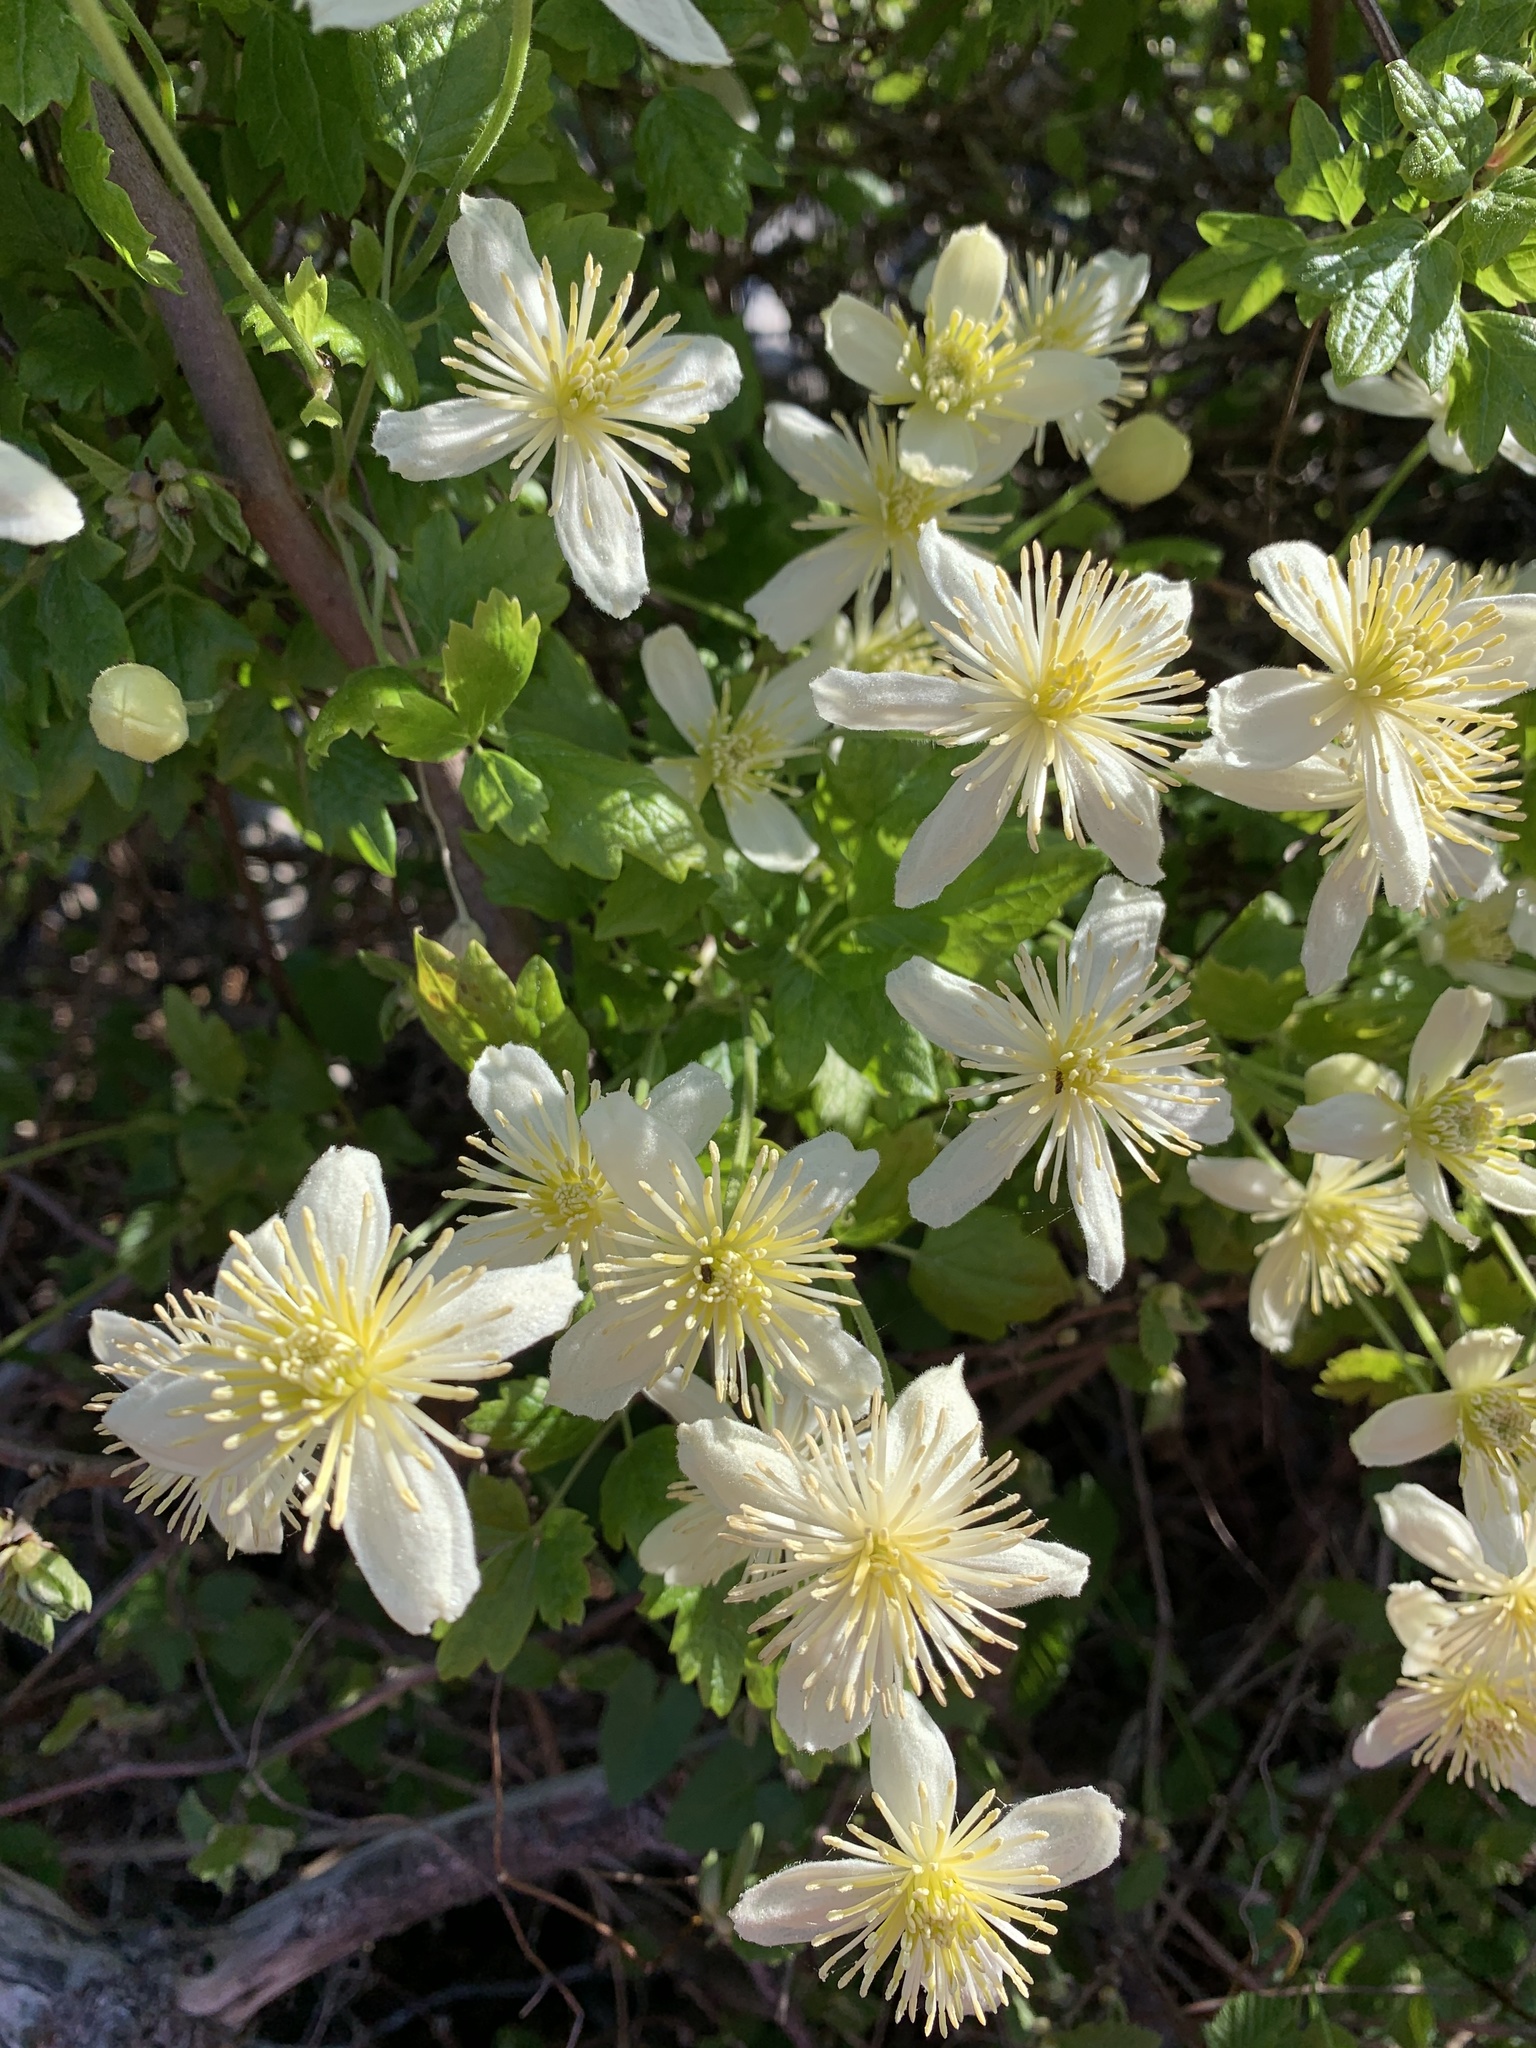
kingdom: Plantae
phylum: Tracheophyta
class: Magnoliopsida
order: Ranunculales
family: Ranunculaceae
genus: Clematis
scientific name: Clematis lasiantha
